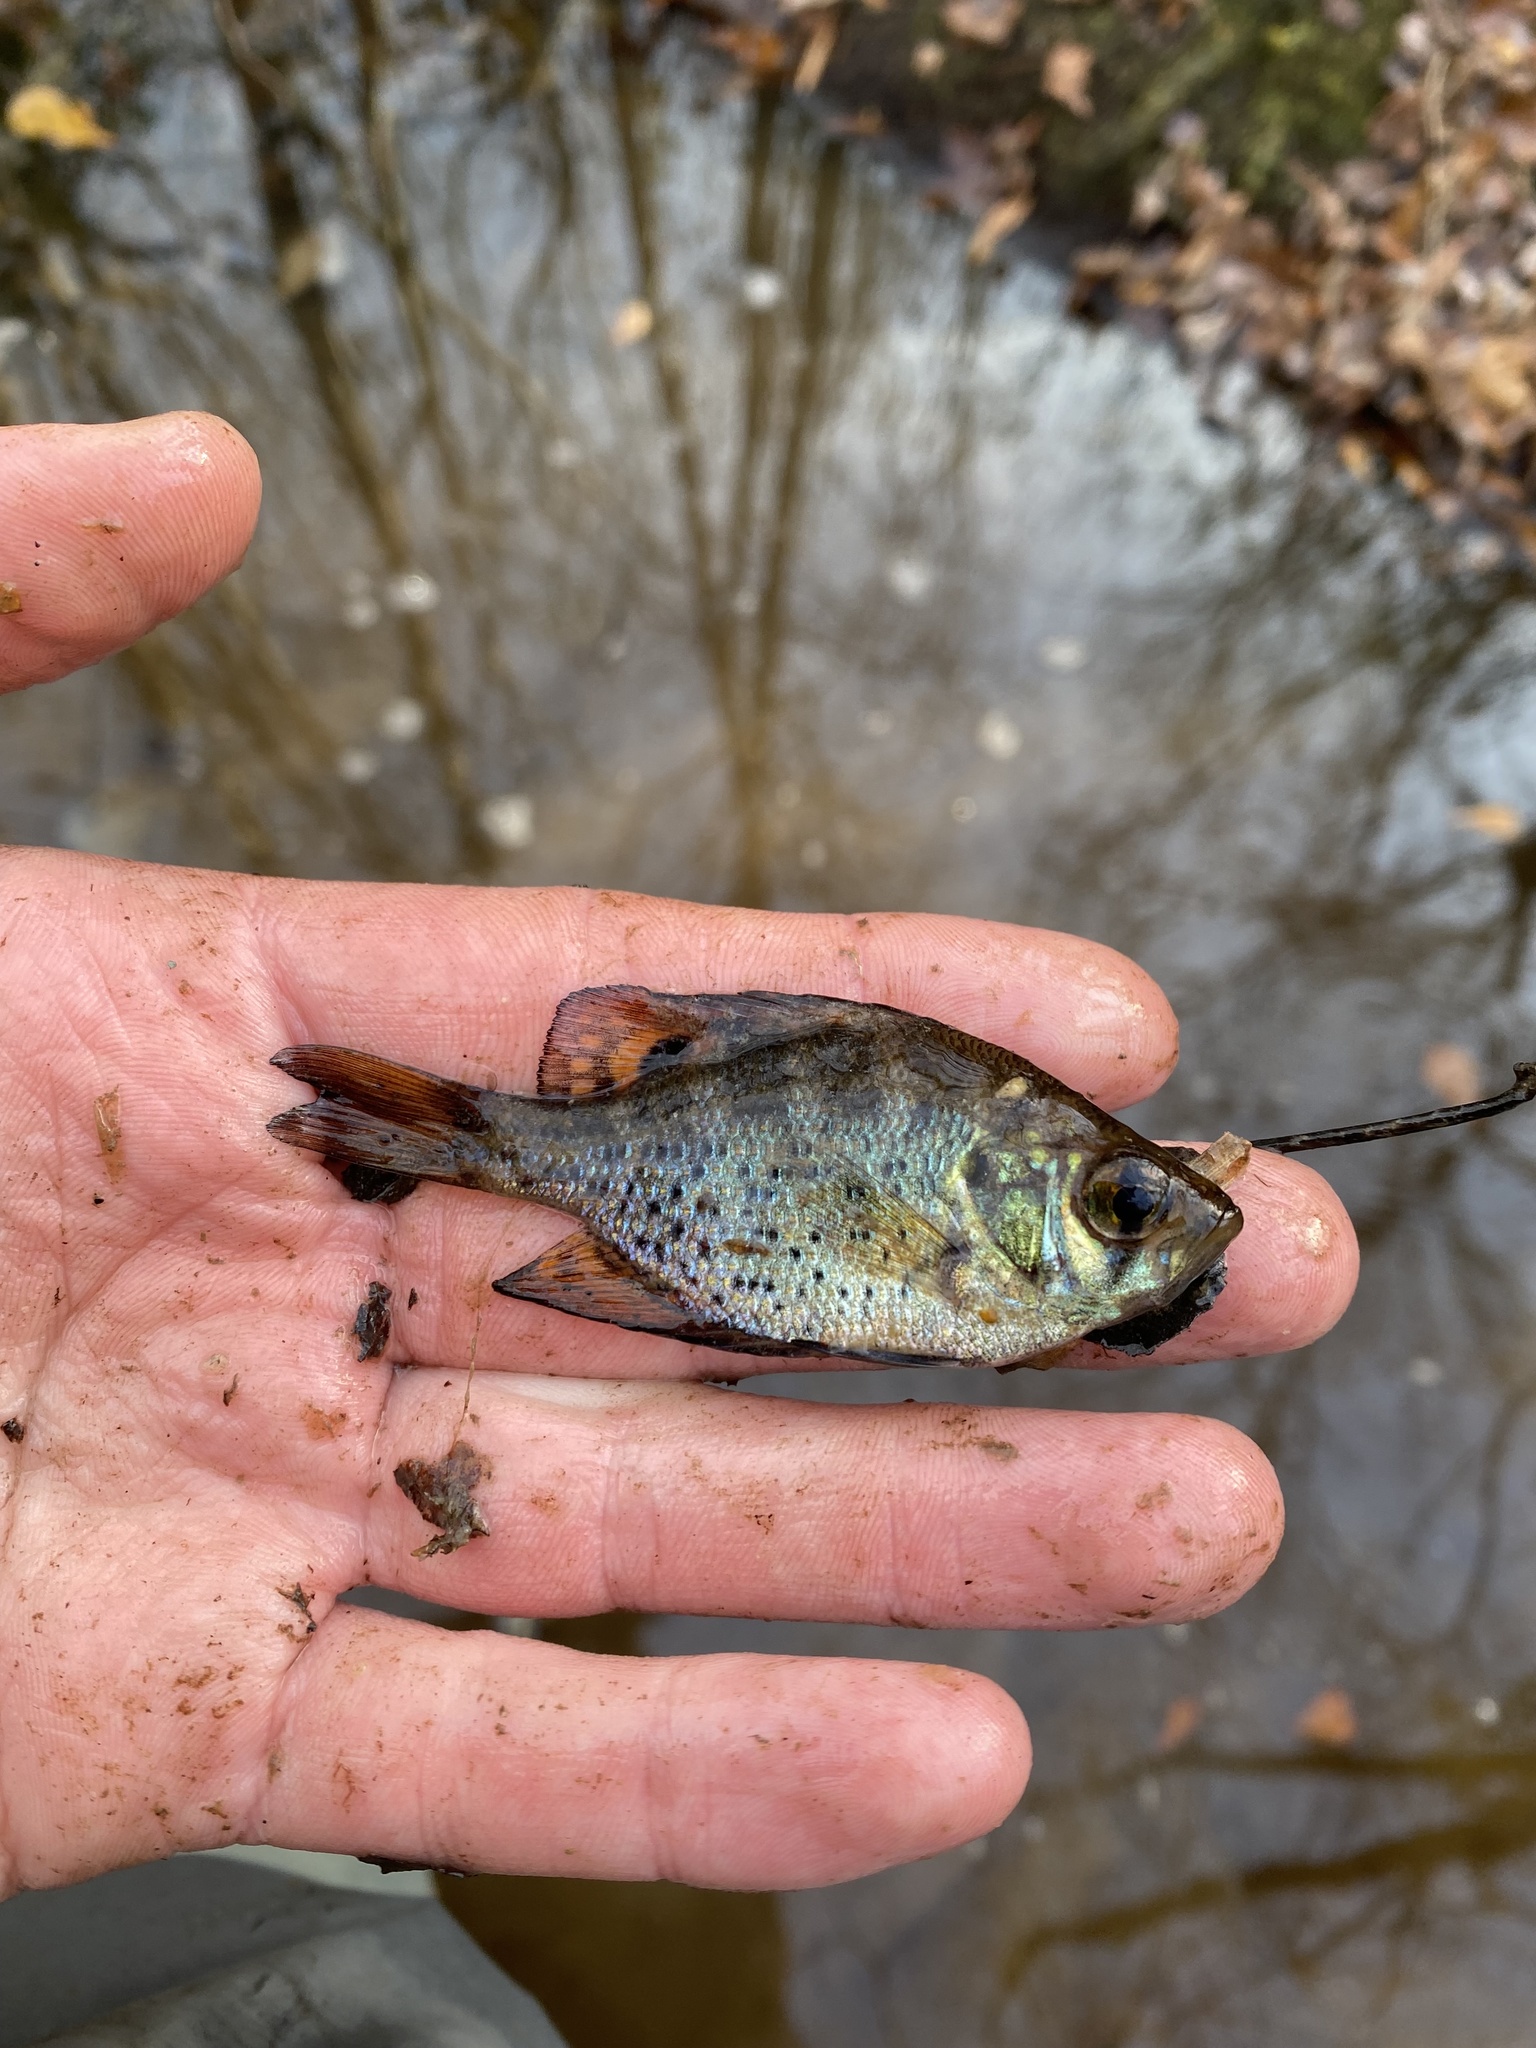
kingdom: Animalia
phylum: Chordata
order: Perciformes
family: Centrarchidae
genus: Centrarchus
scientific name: Centrarchus macropterus
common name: Flier
